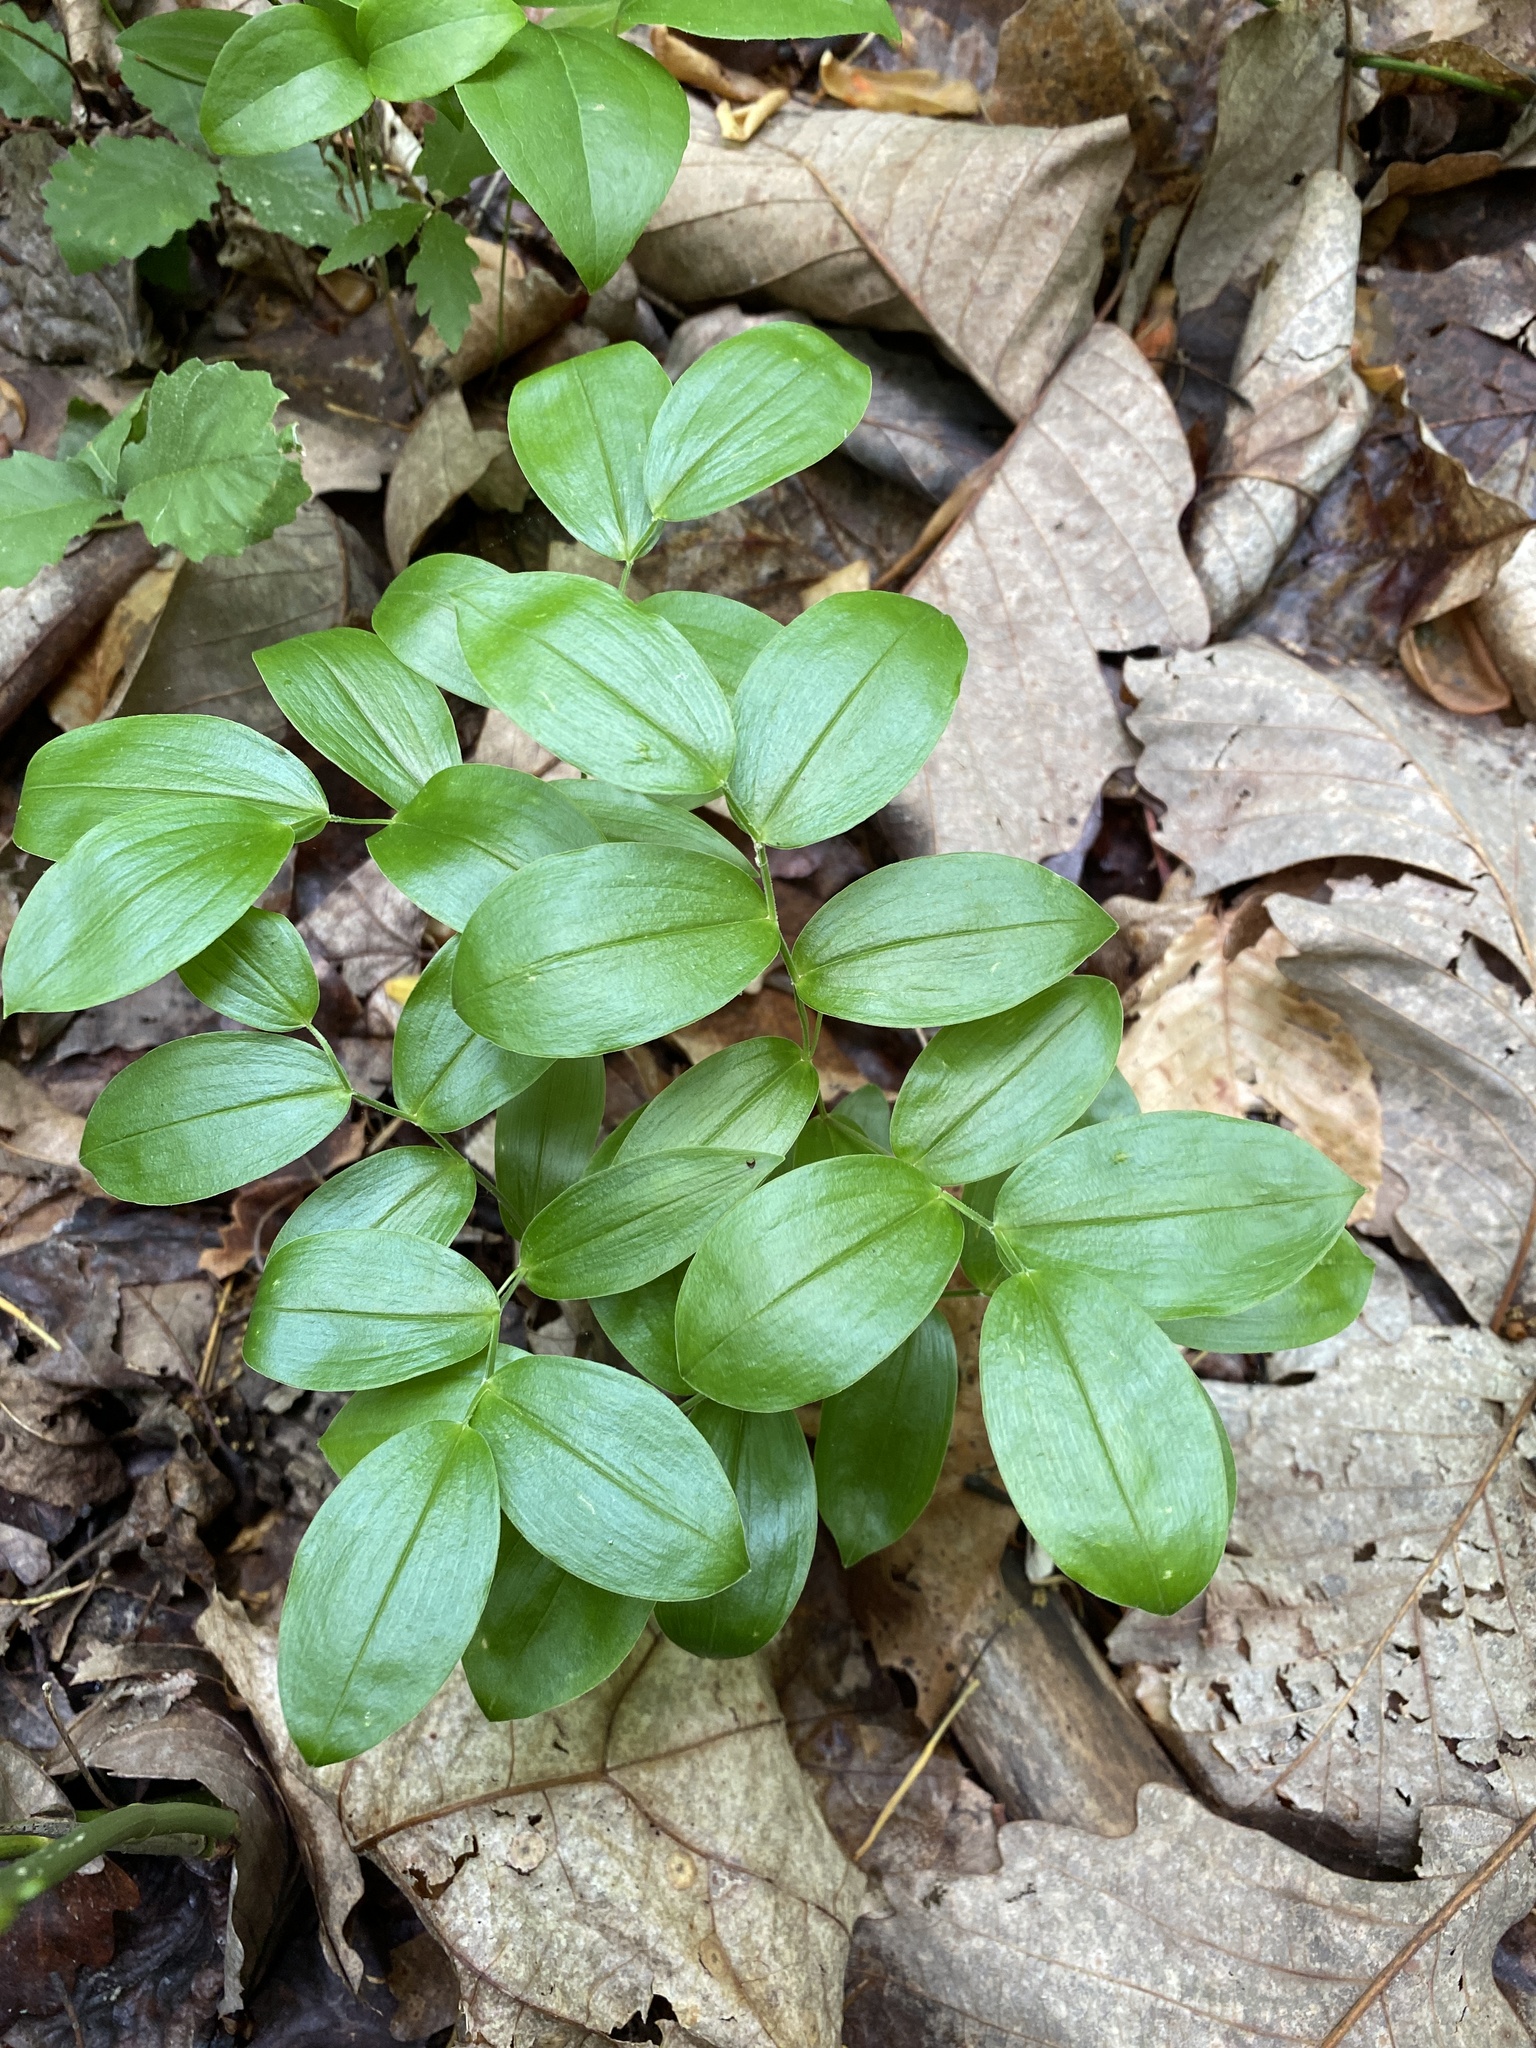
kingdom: Plantae
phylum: Tracheophyta
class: Liliopsida
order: Liliales
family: Colchicaceae
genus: Uvularia
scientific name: Uvularia puberula
